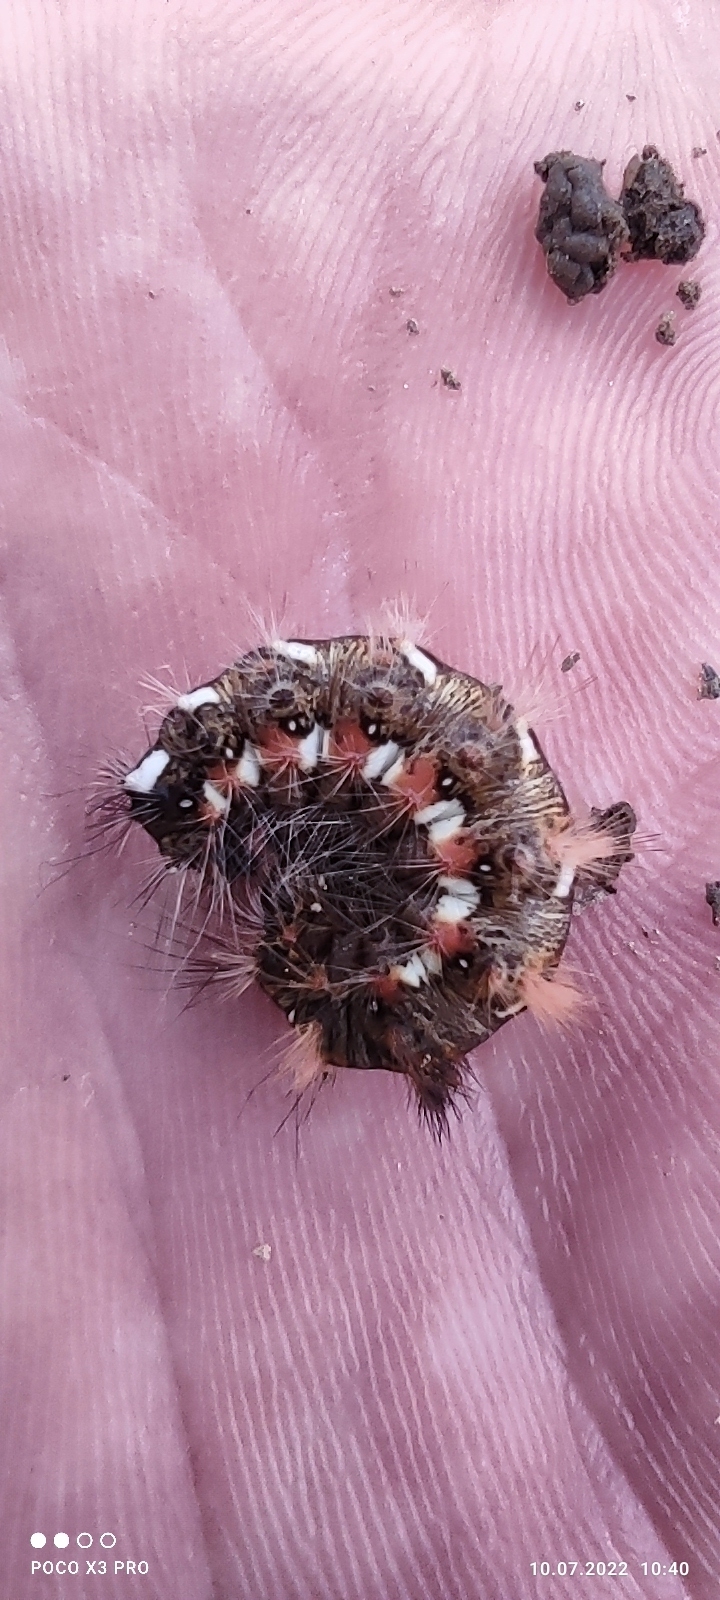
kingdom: Animalia
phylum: Arthropoda
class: Insecta
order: Lepidoptera
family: Noctuidae
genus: Acronicta
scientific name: Acronicta rumicis
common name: Knot grass
